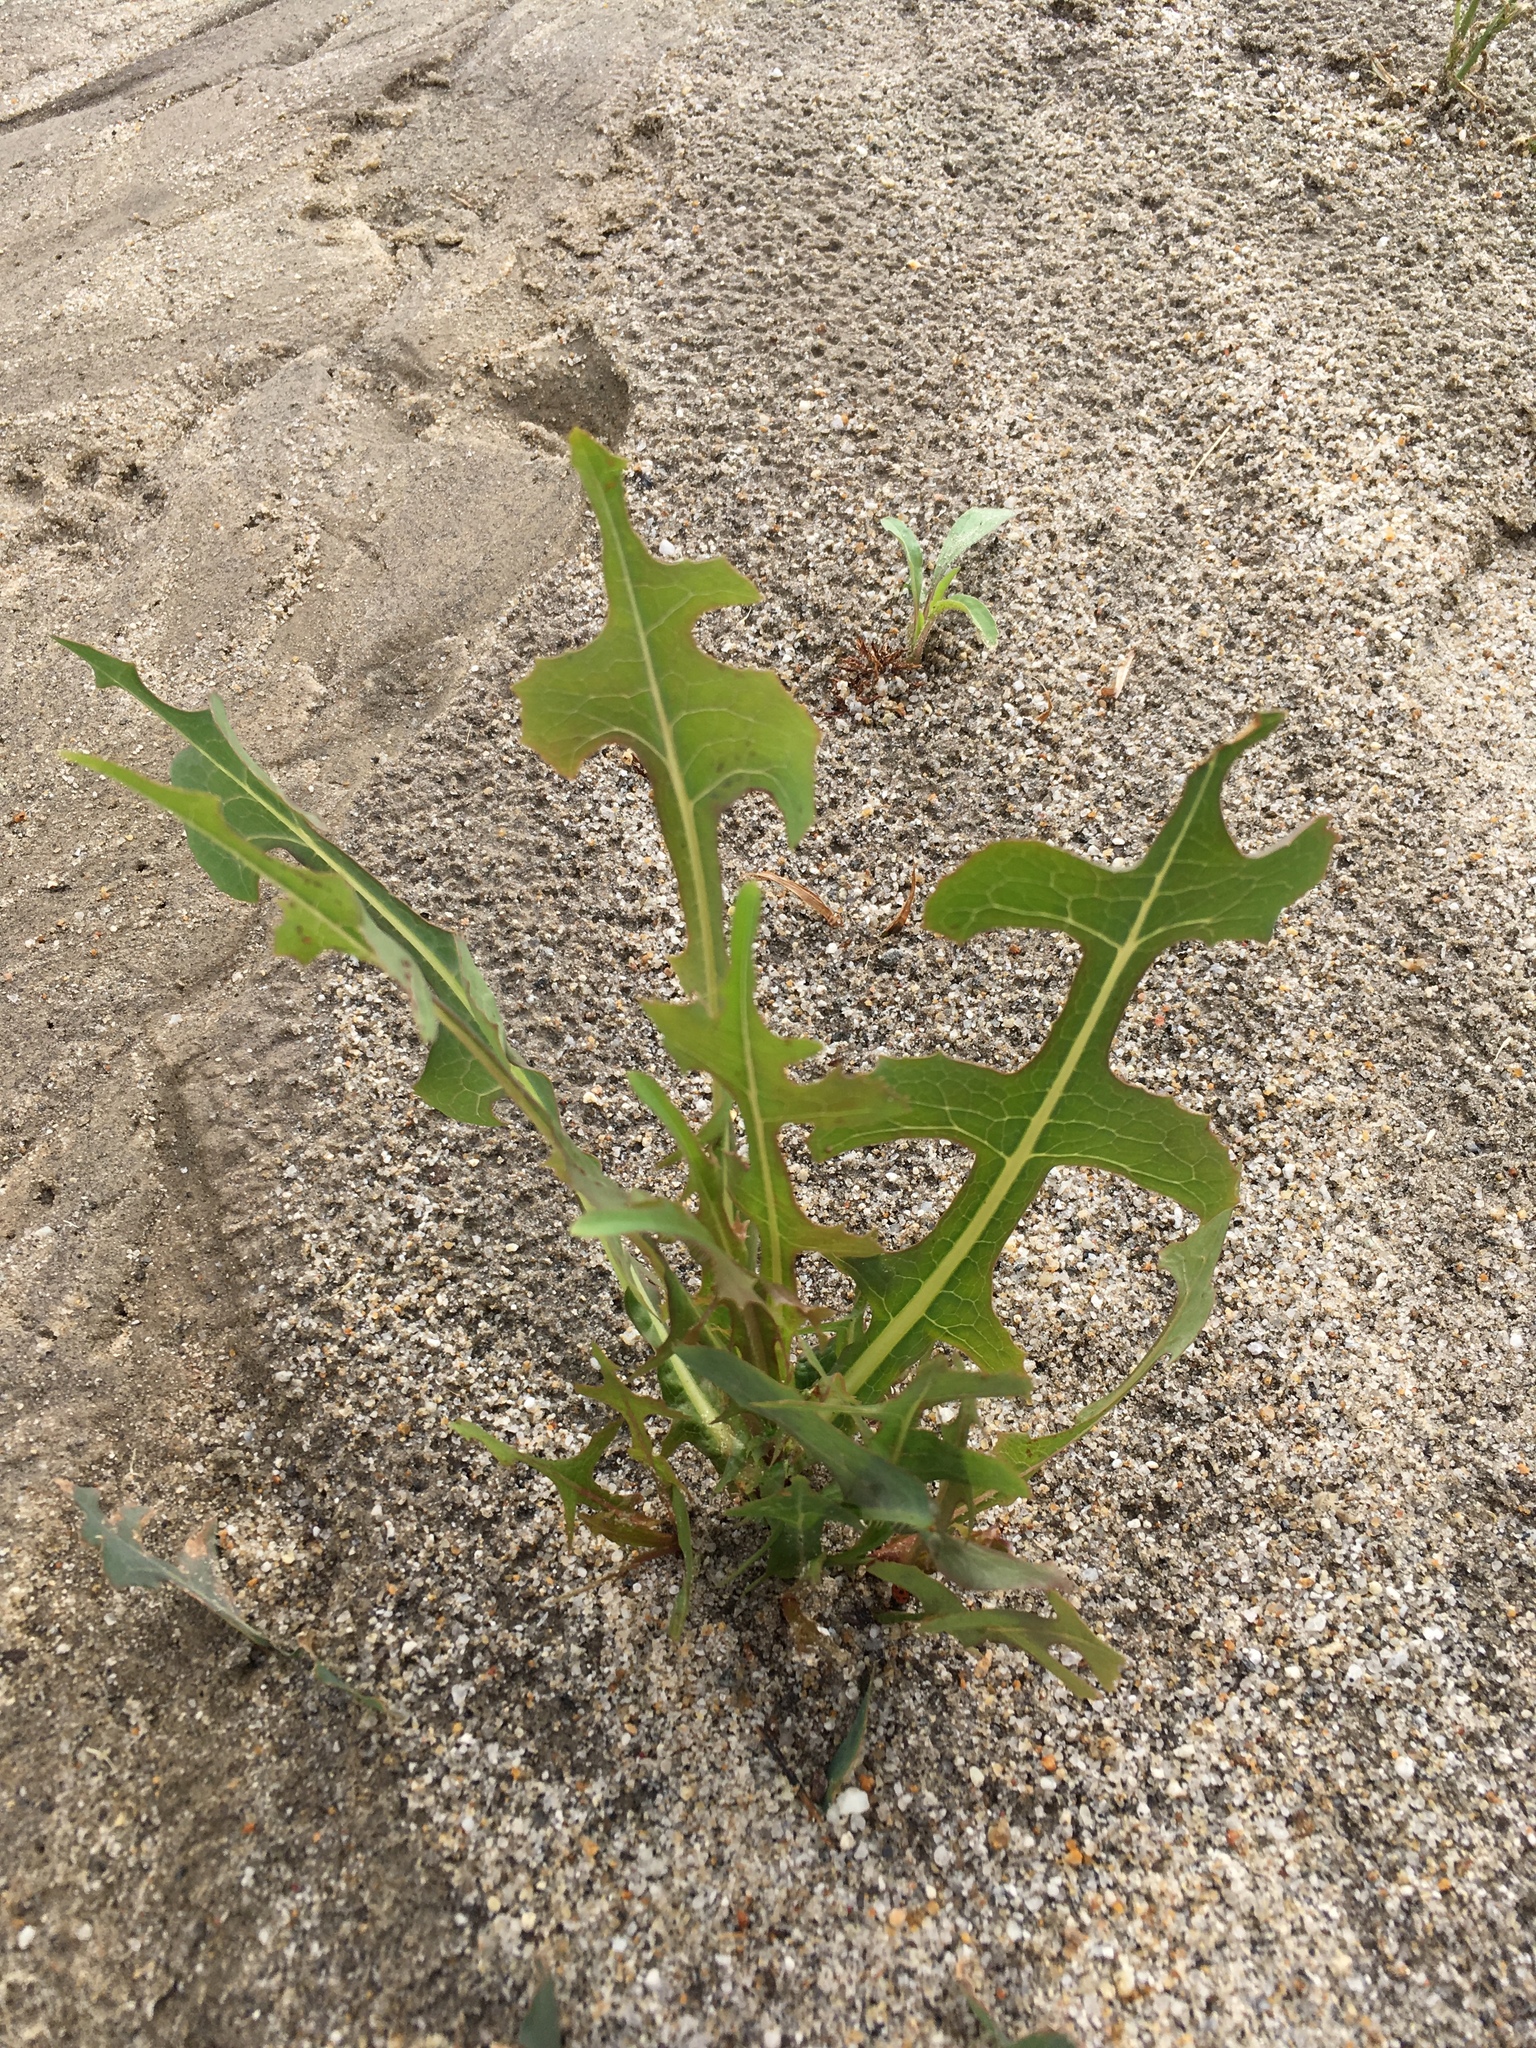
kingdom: Plantae
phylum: Tracheophyta
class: Magnoliopsida
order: Asterales
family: Asteraceae
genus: Lactuca
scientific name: Lactuca serriola
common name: Prickly lettuce
